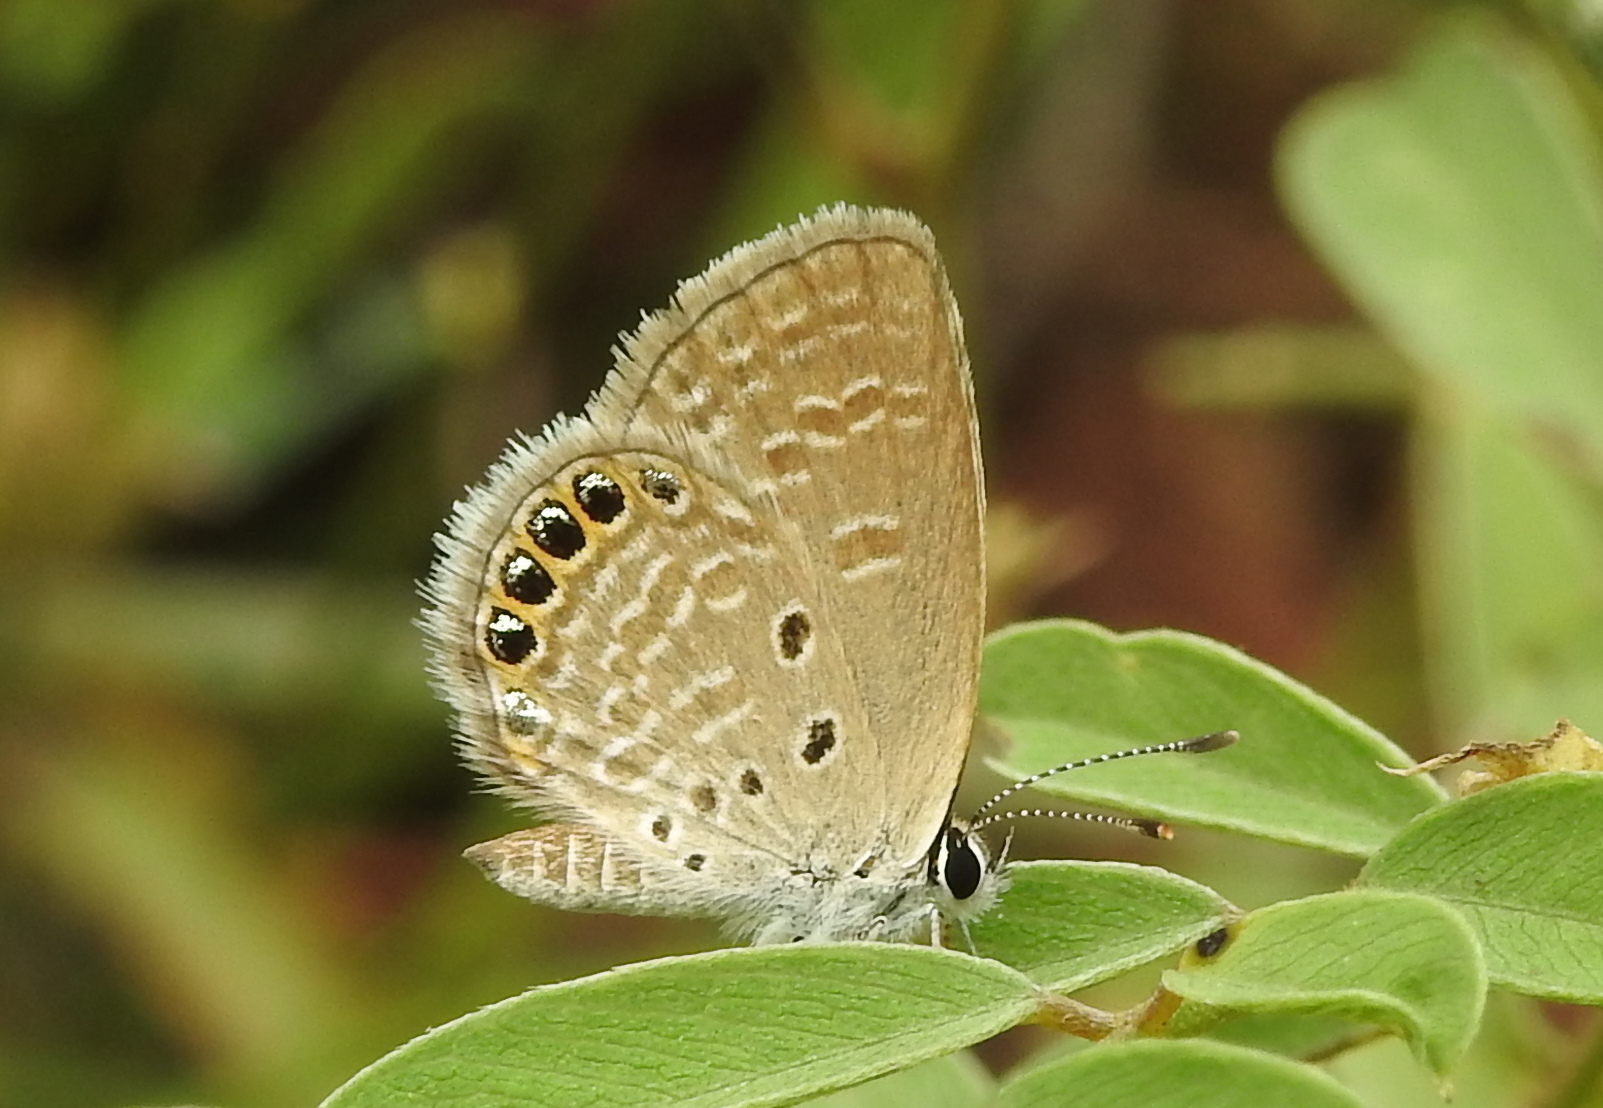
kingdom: Animalia
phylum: Arthropoda
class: Insecta
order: Lepidoptera
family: Lycaenidae
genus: Freyeria
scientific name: Freyeria putli
